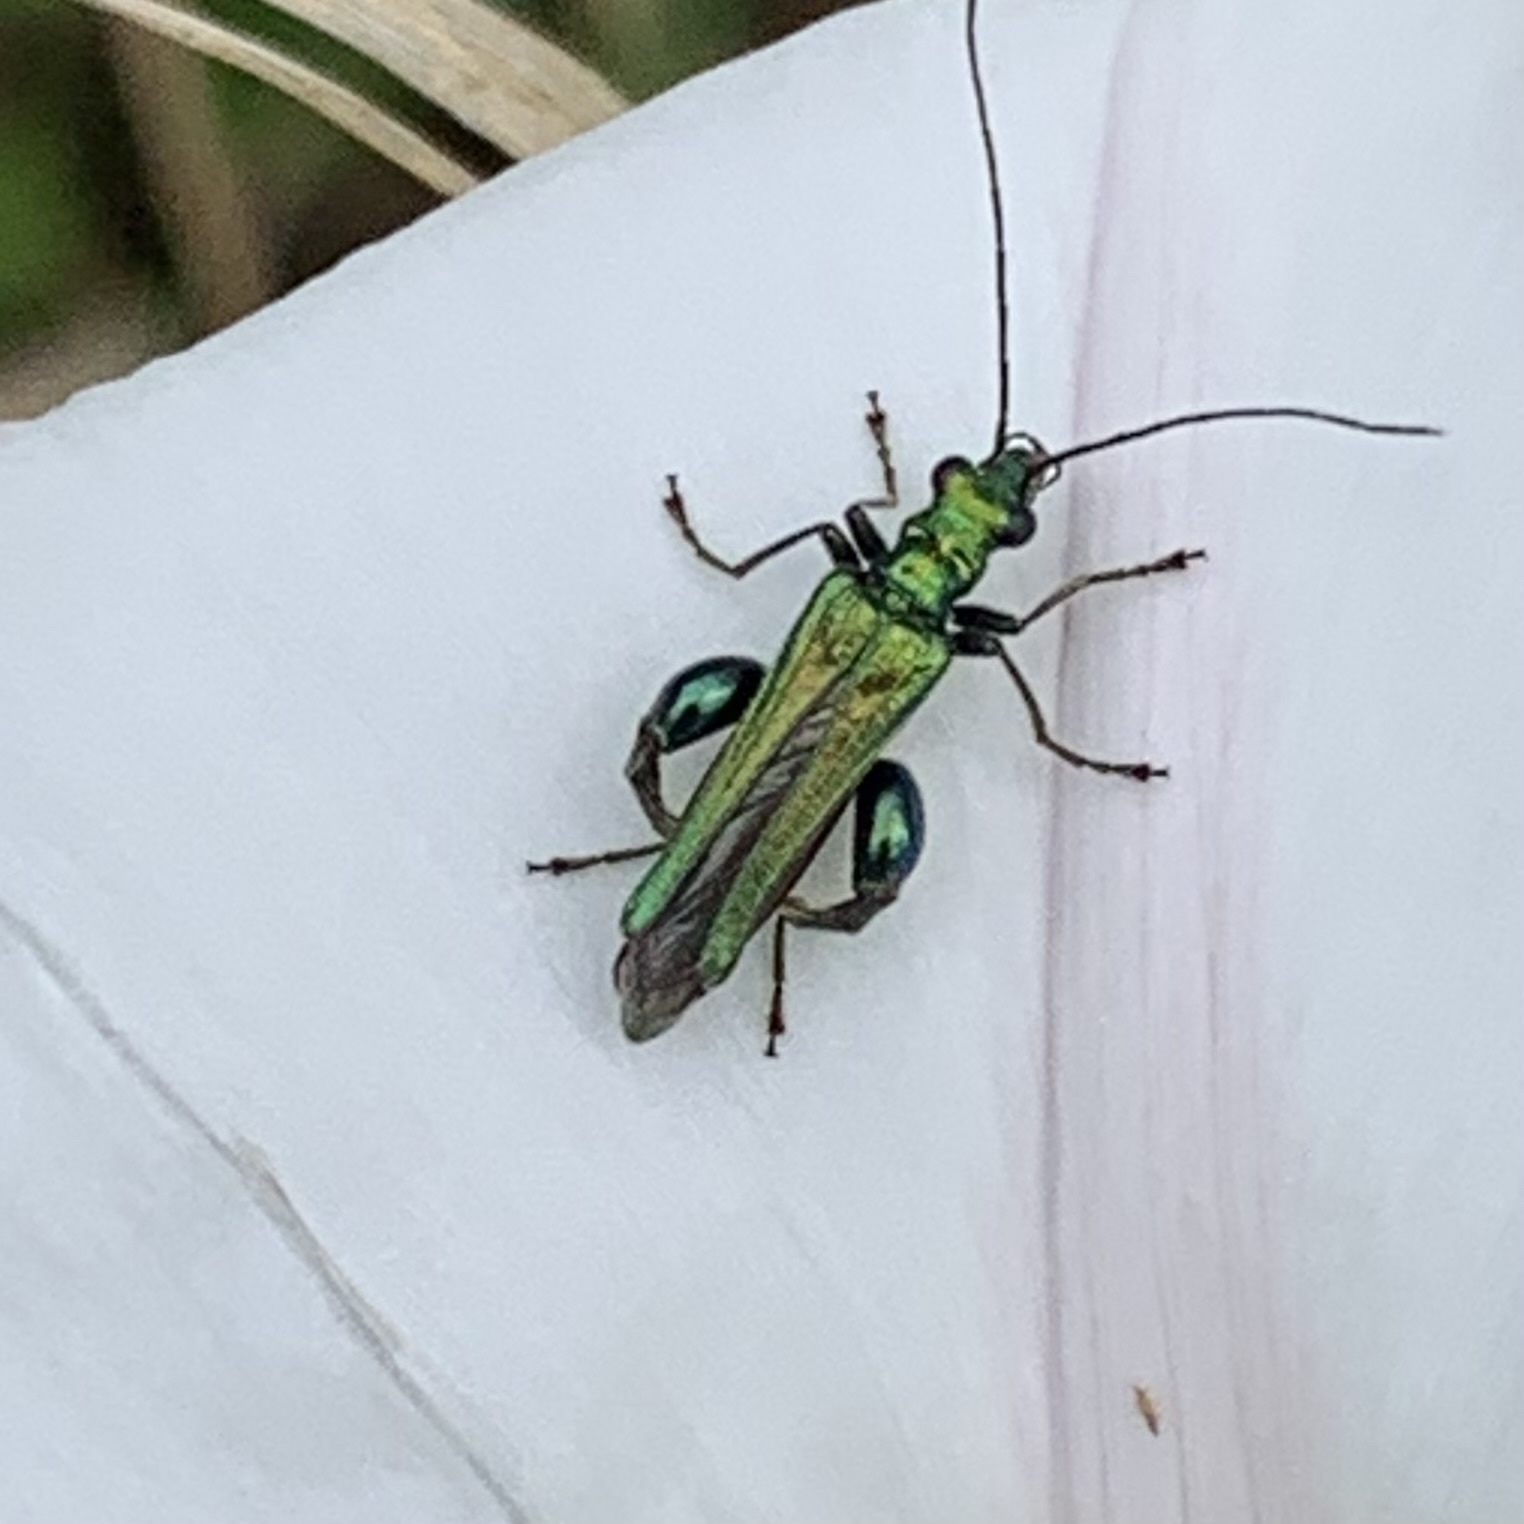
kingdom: Animalia
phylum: Arthropoda
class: Insecta
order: Coleoptera
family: Oedemeridae
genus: Oedemera
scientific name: Oedemera nobilis
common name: Swollen-thighed beetle
